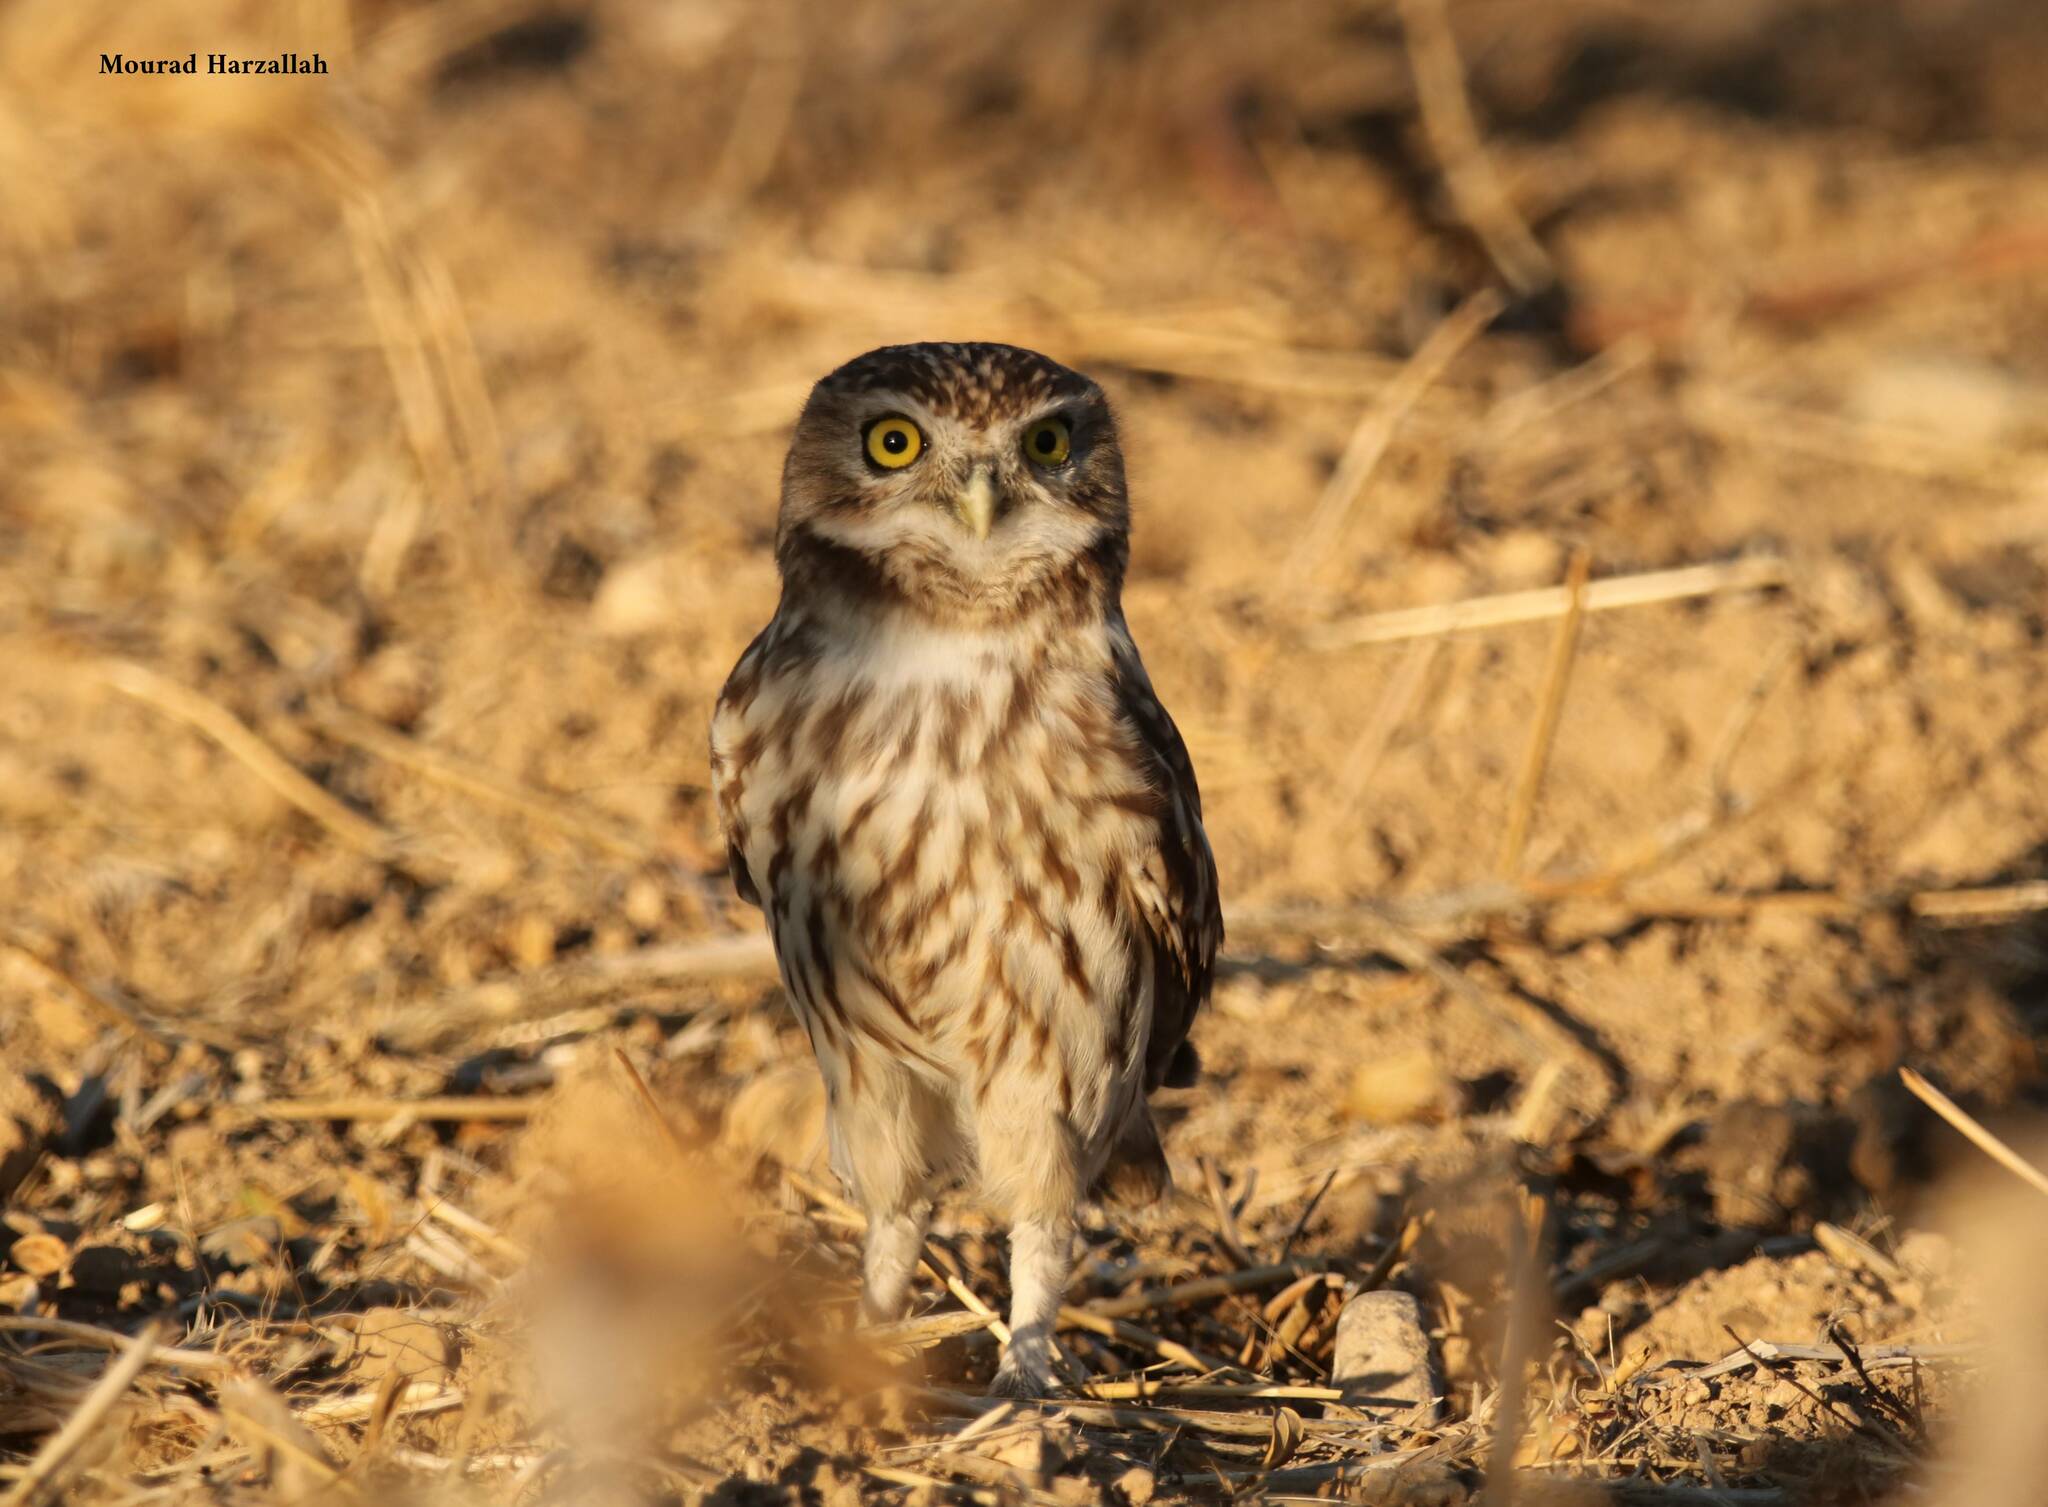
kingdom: Animalia
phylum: Chordata
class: Aves
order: Strigiformes
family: Strigidae
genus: Athene
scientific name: Athene noctua
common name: Little owl
